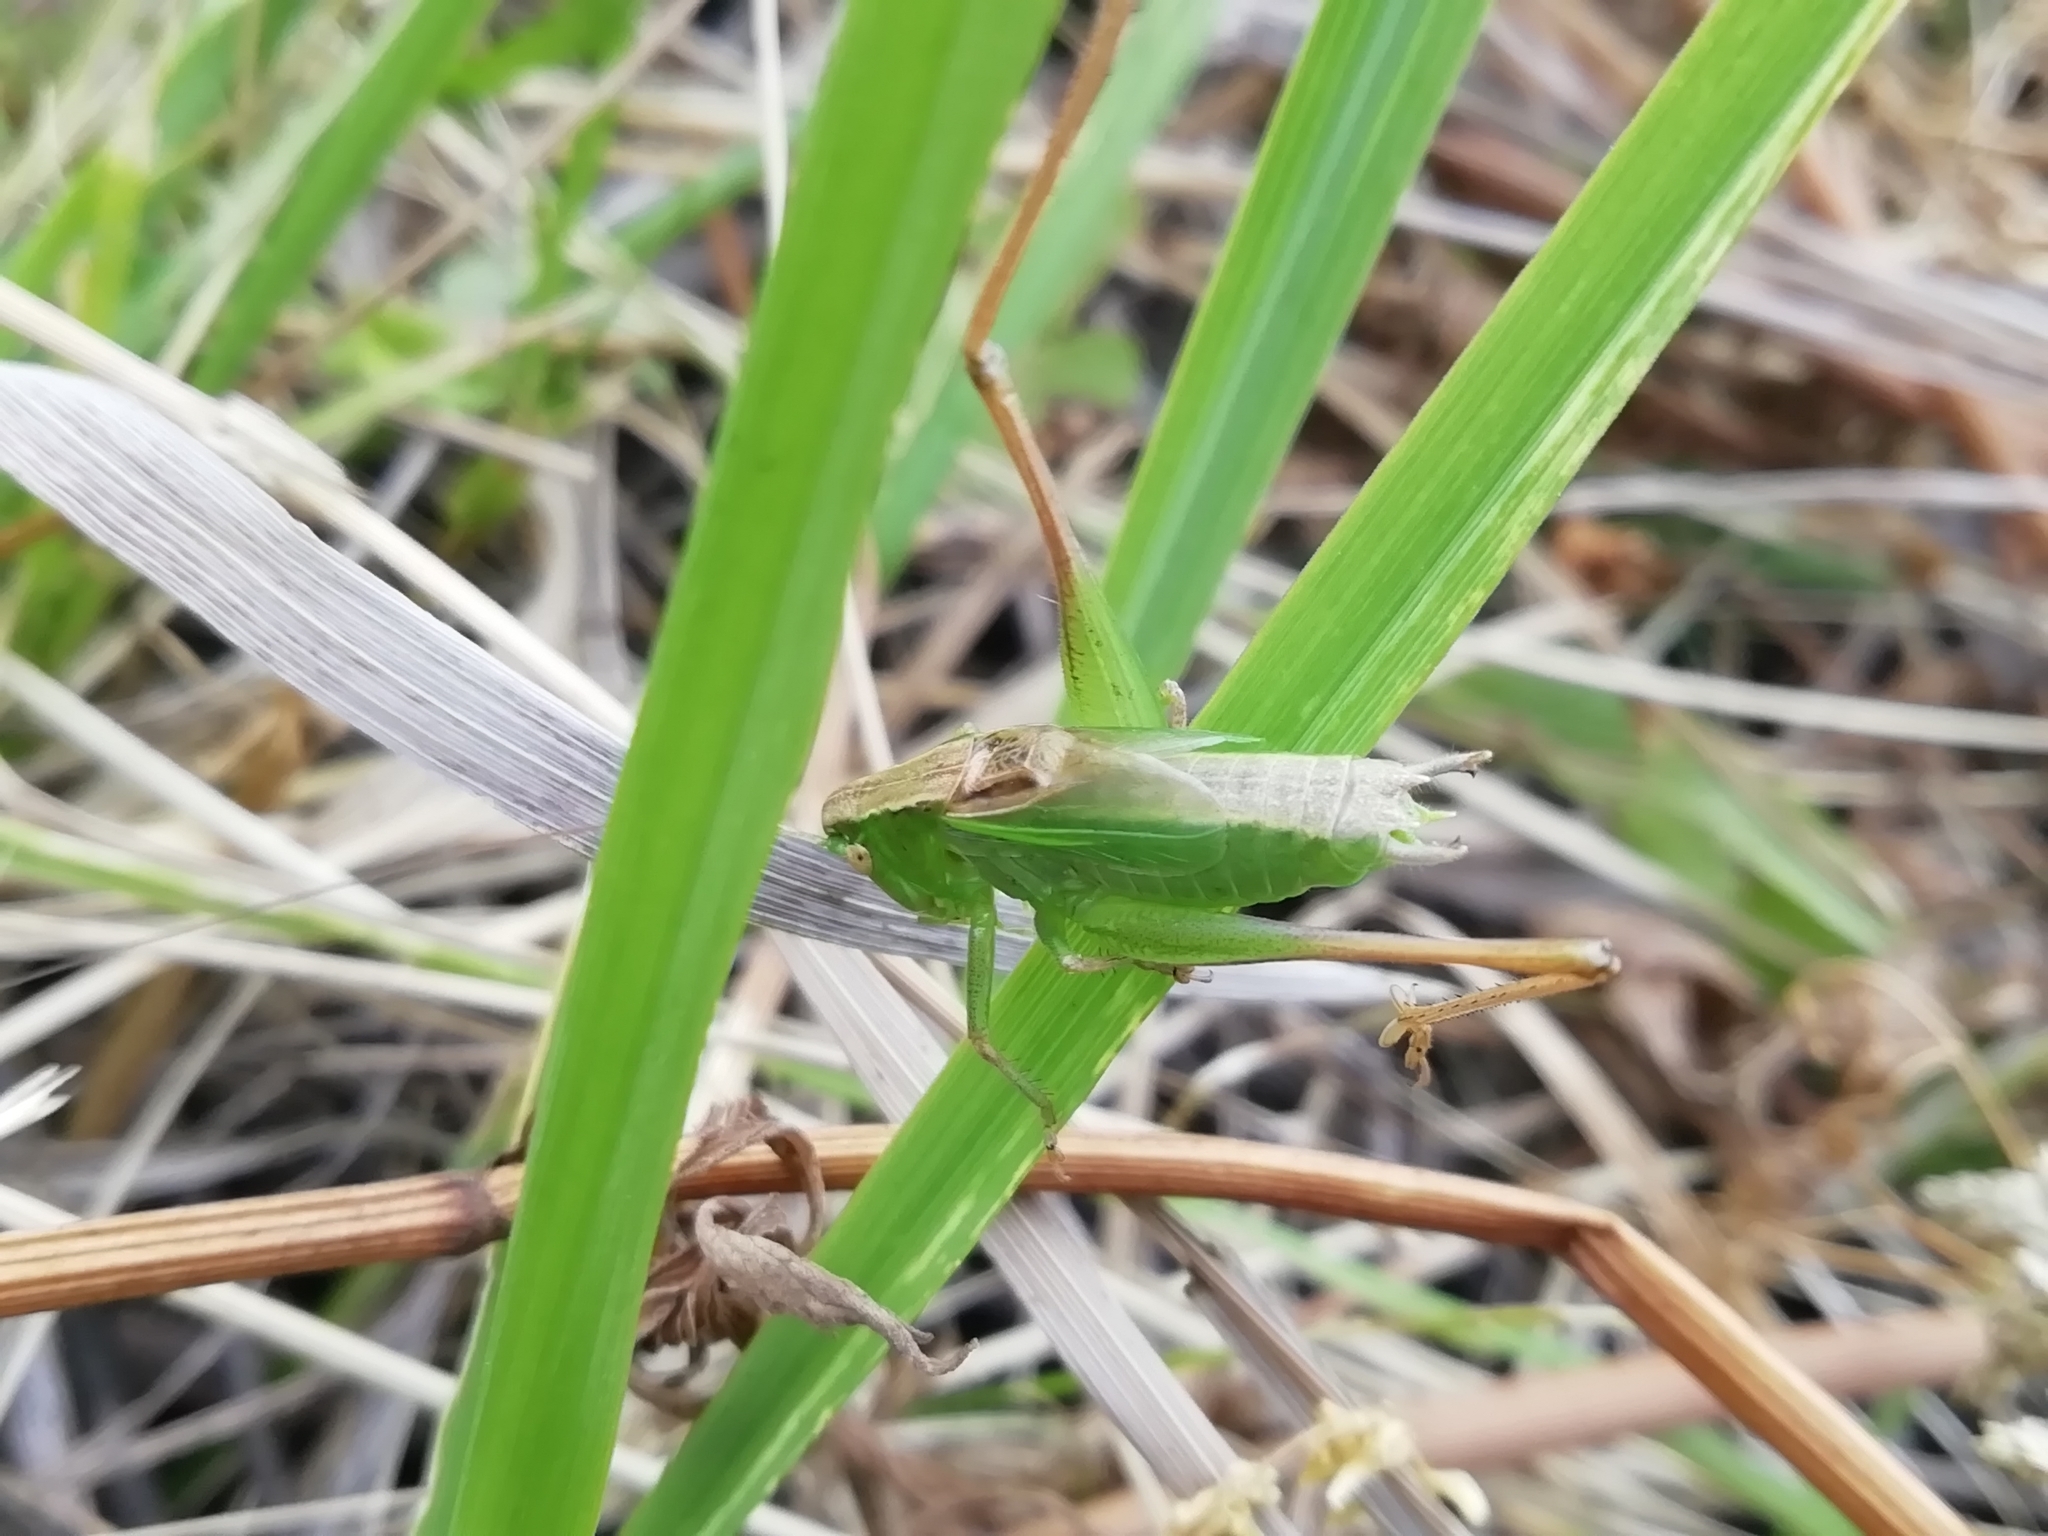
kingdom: Animalia
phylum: Arthropoda
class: Insecta
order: Orthoptera
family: Tettigoniidae
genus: Bicolorana
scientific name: Bicolorana bicolor
